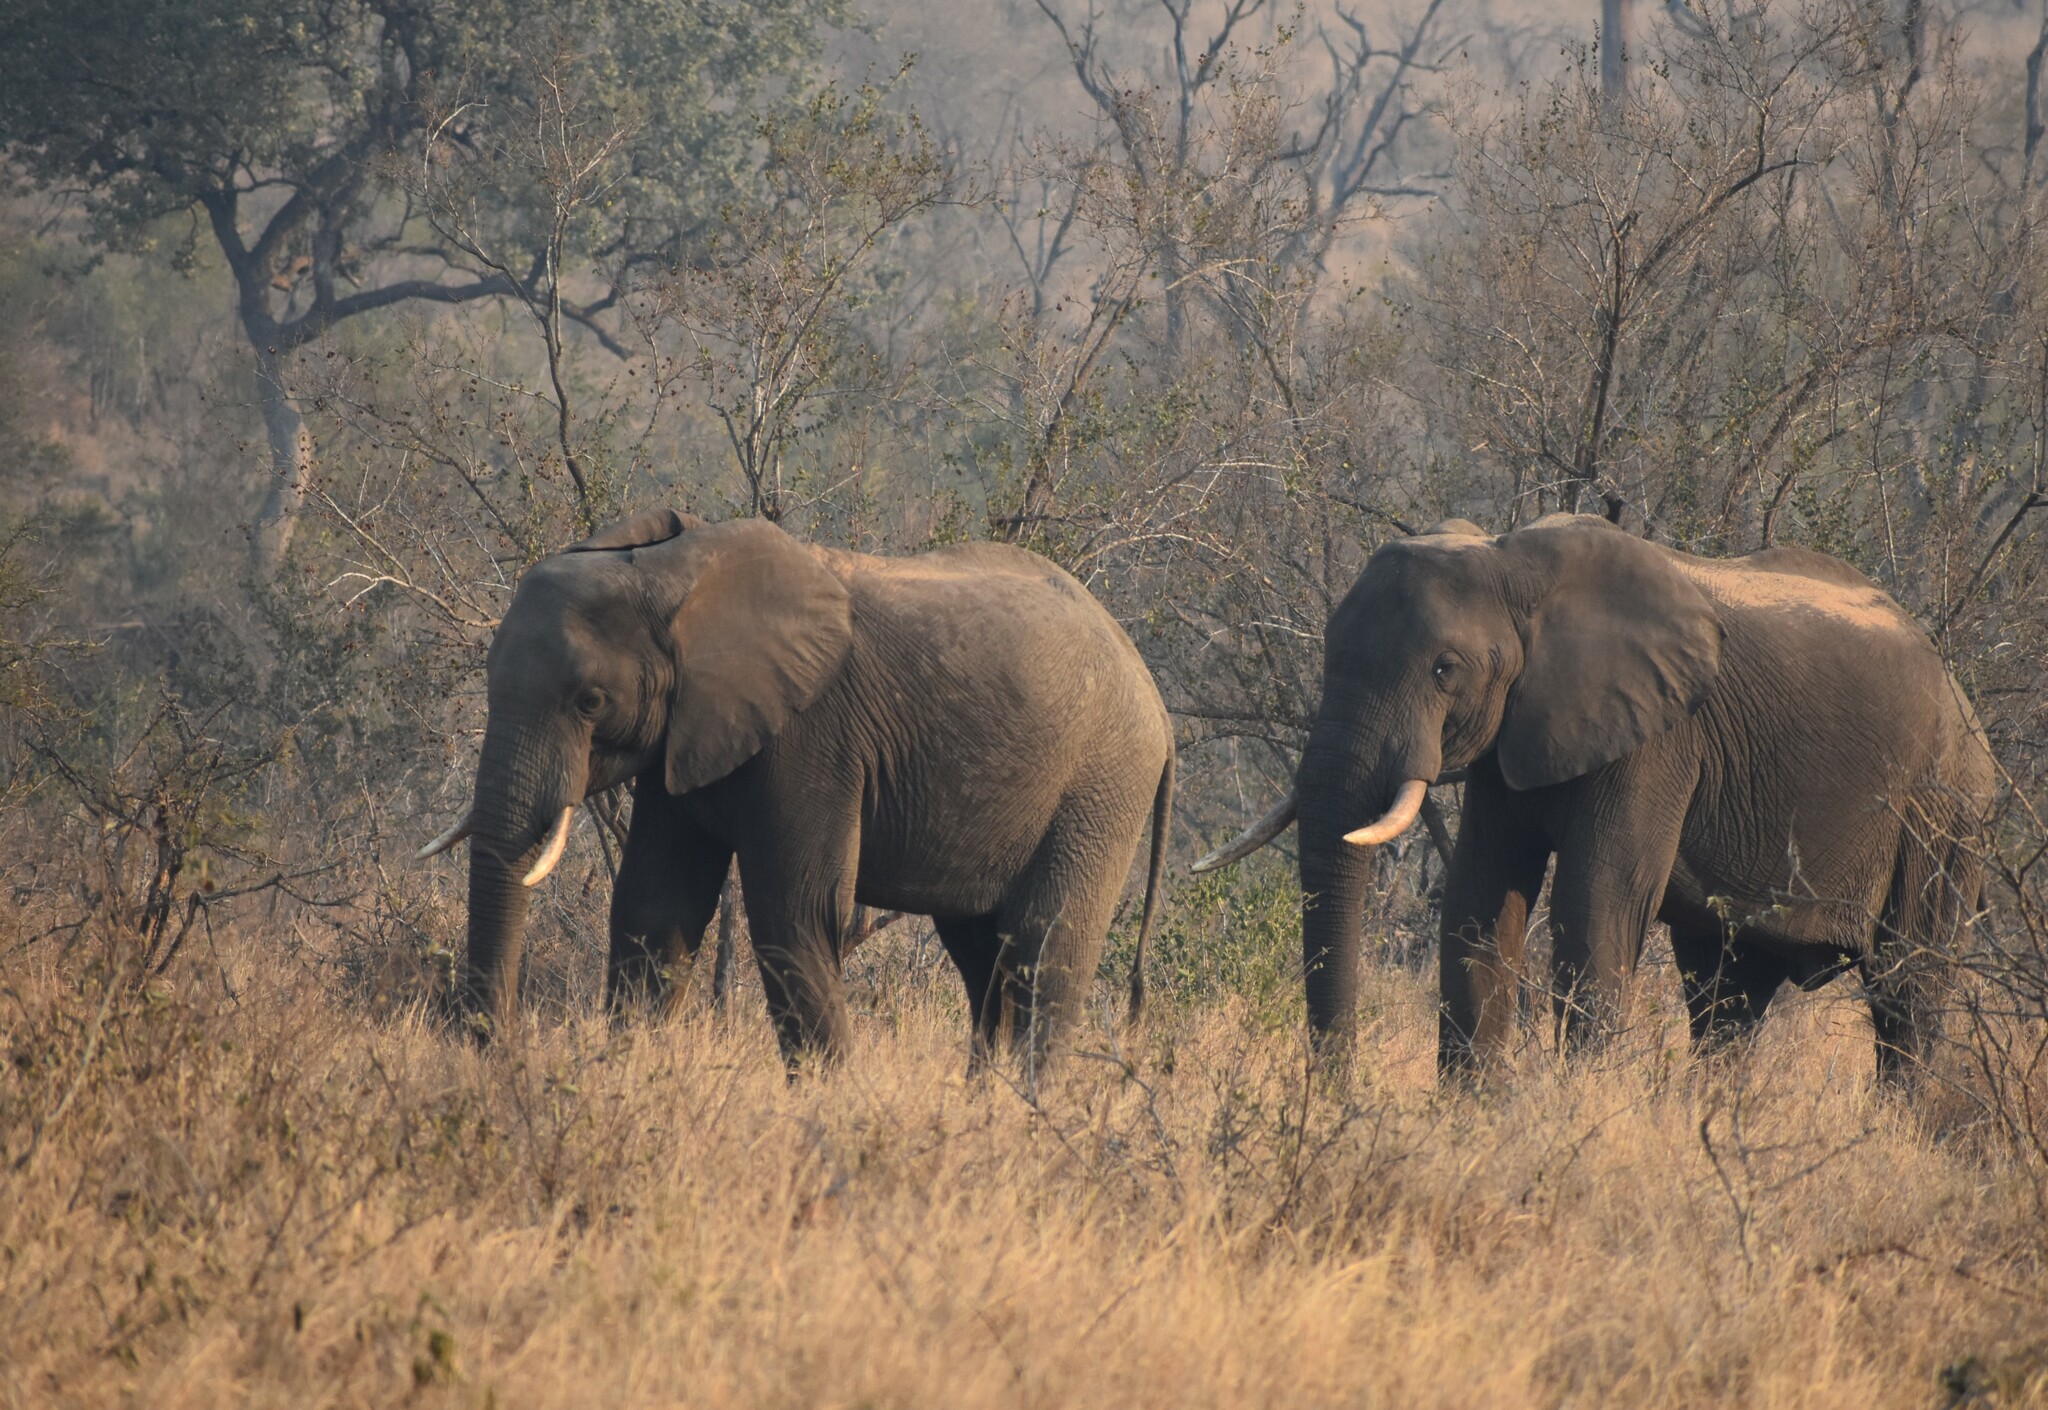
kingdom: Animalia
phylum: Chordata
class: Mammalia
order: Proboscidea
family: Elephantidae
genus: Loxodonta
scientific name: Loxodonta africana
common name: African elephant
